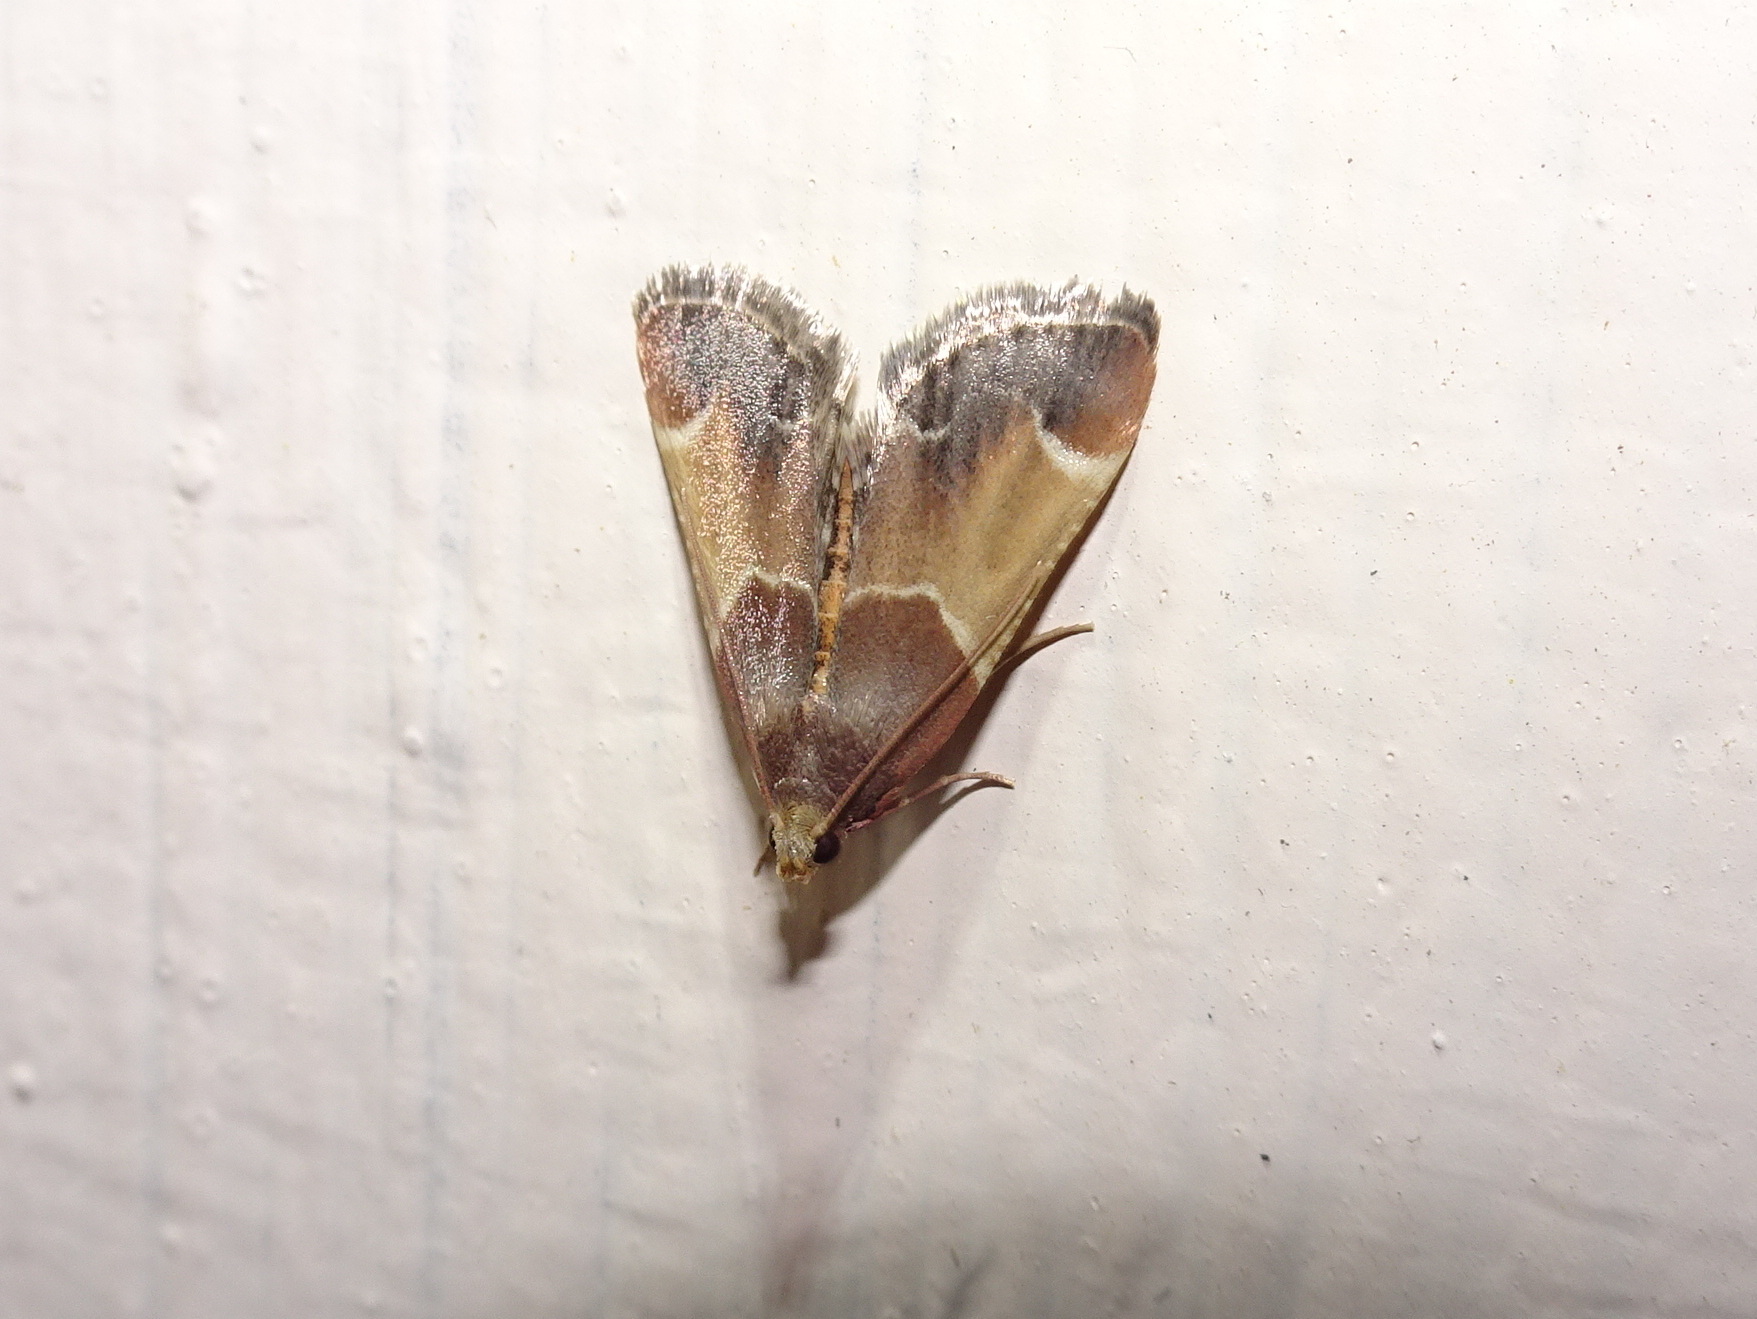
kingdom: Animalia
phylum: Arthropoda
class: Insecta
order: Lepidoptera
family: Pyralidae
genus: Pyralis
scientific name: Pyralis farinalis
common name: Meal moth
